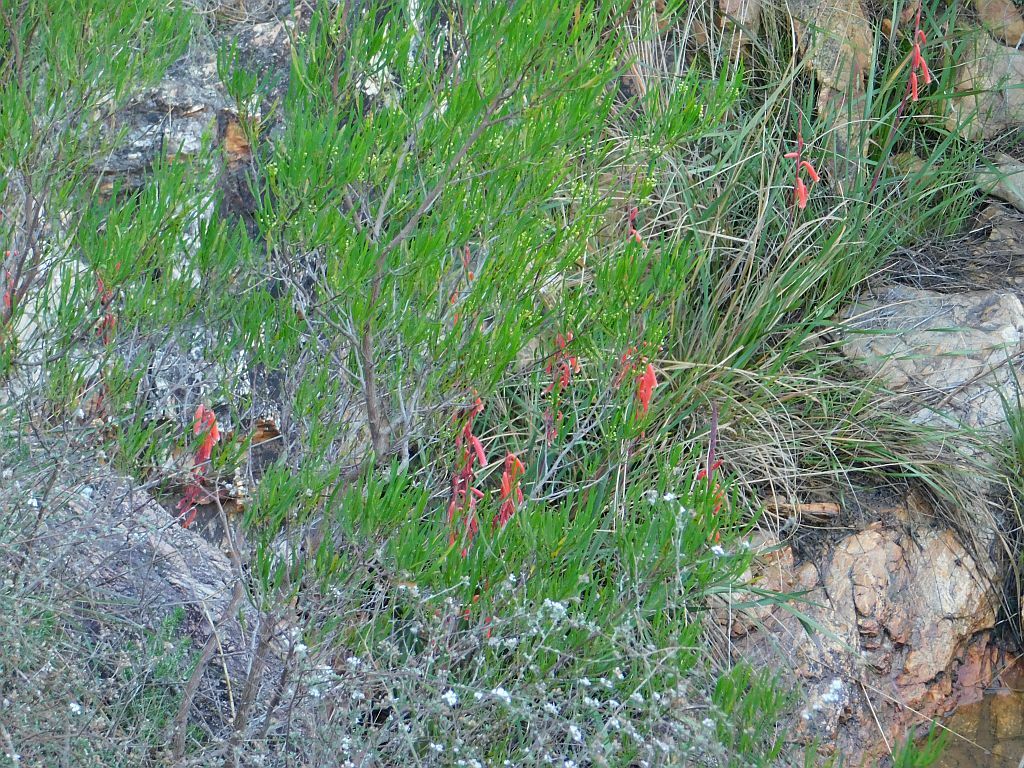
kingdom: Plantae
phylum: Tracheophyta
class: Liliopsida
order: Asparagales
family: Iridaceae
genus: Watsonia
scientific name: Watsonia aletroides
